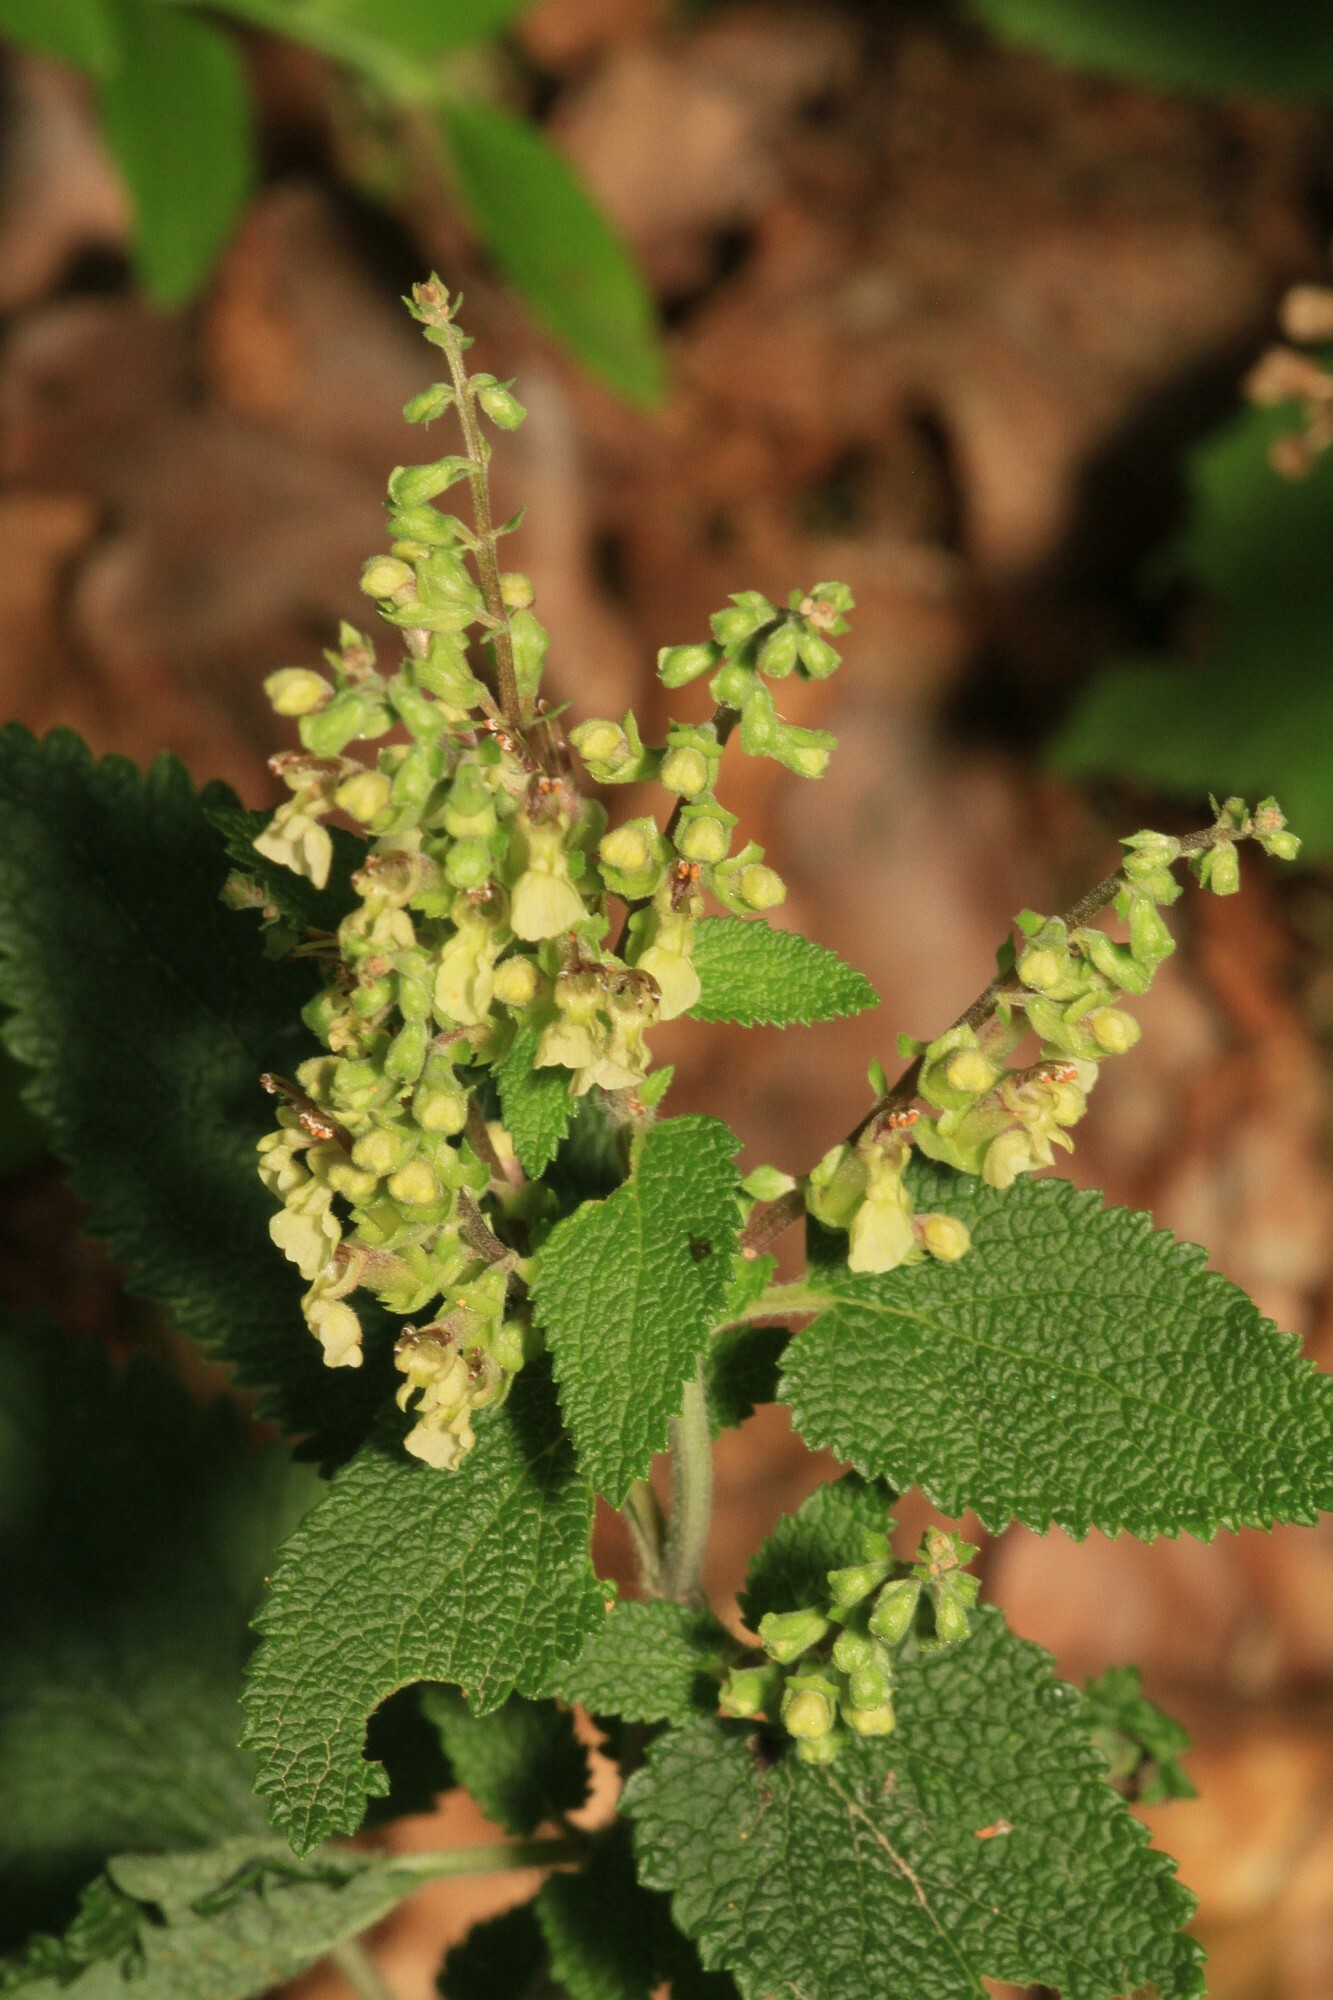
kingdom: Plantae
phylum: Tracheophyta
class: Magnoliopsida
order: Lamiales
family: Lamiaceae
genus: Teucrium
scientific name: Teucrium scorodonia
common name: Woodland germander
